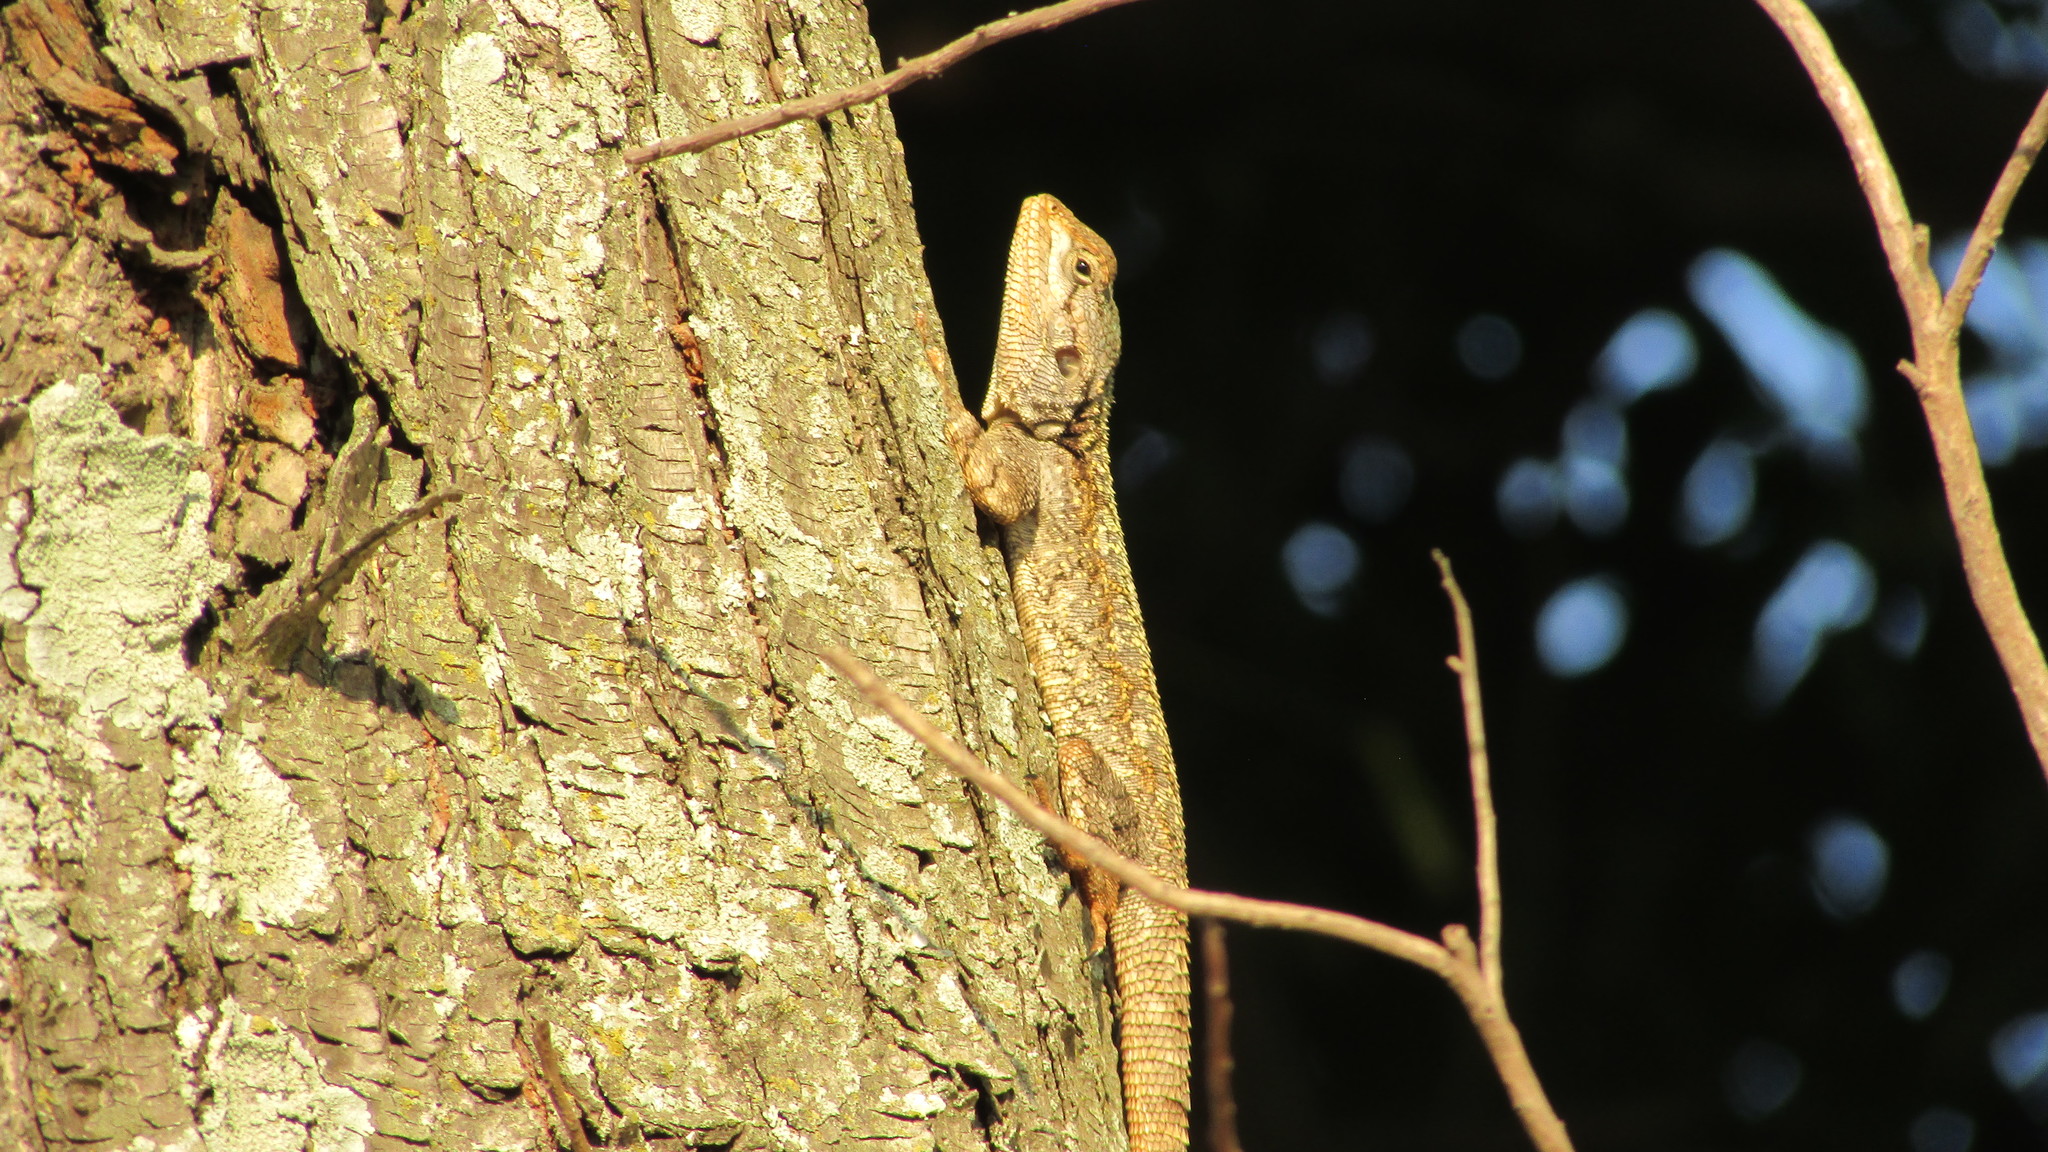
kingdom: Animalia
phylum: Chordata
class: Squamata
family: Agamidae
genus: Acanthocercus
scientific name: Acanthocercus atricollis
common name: Southern tree agama
